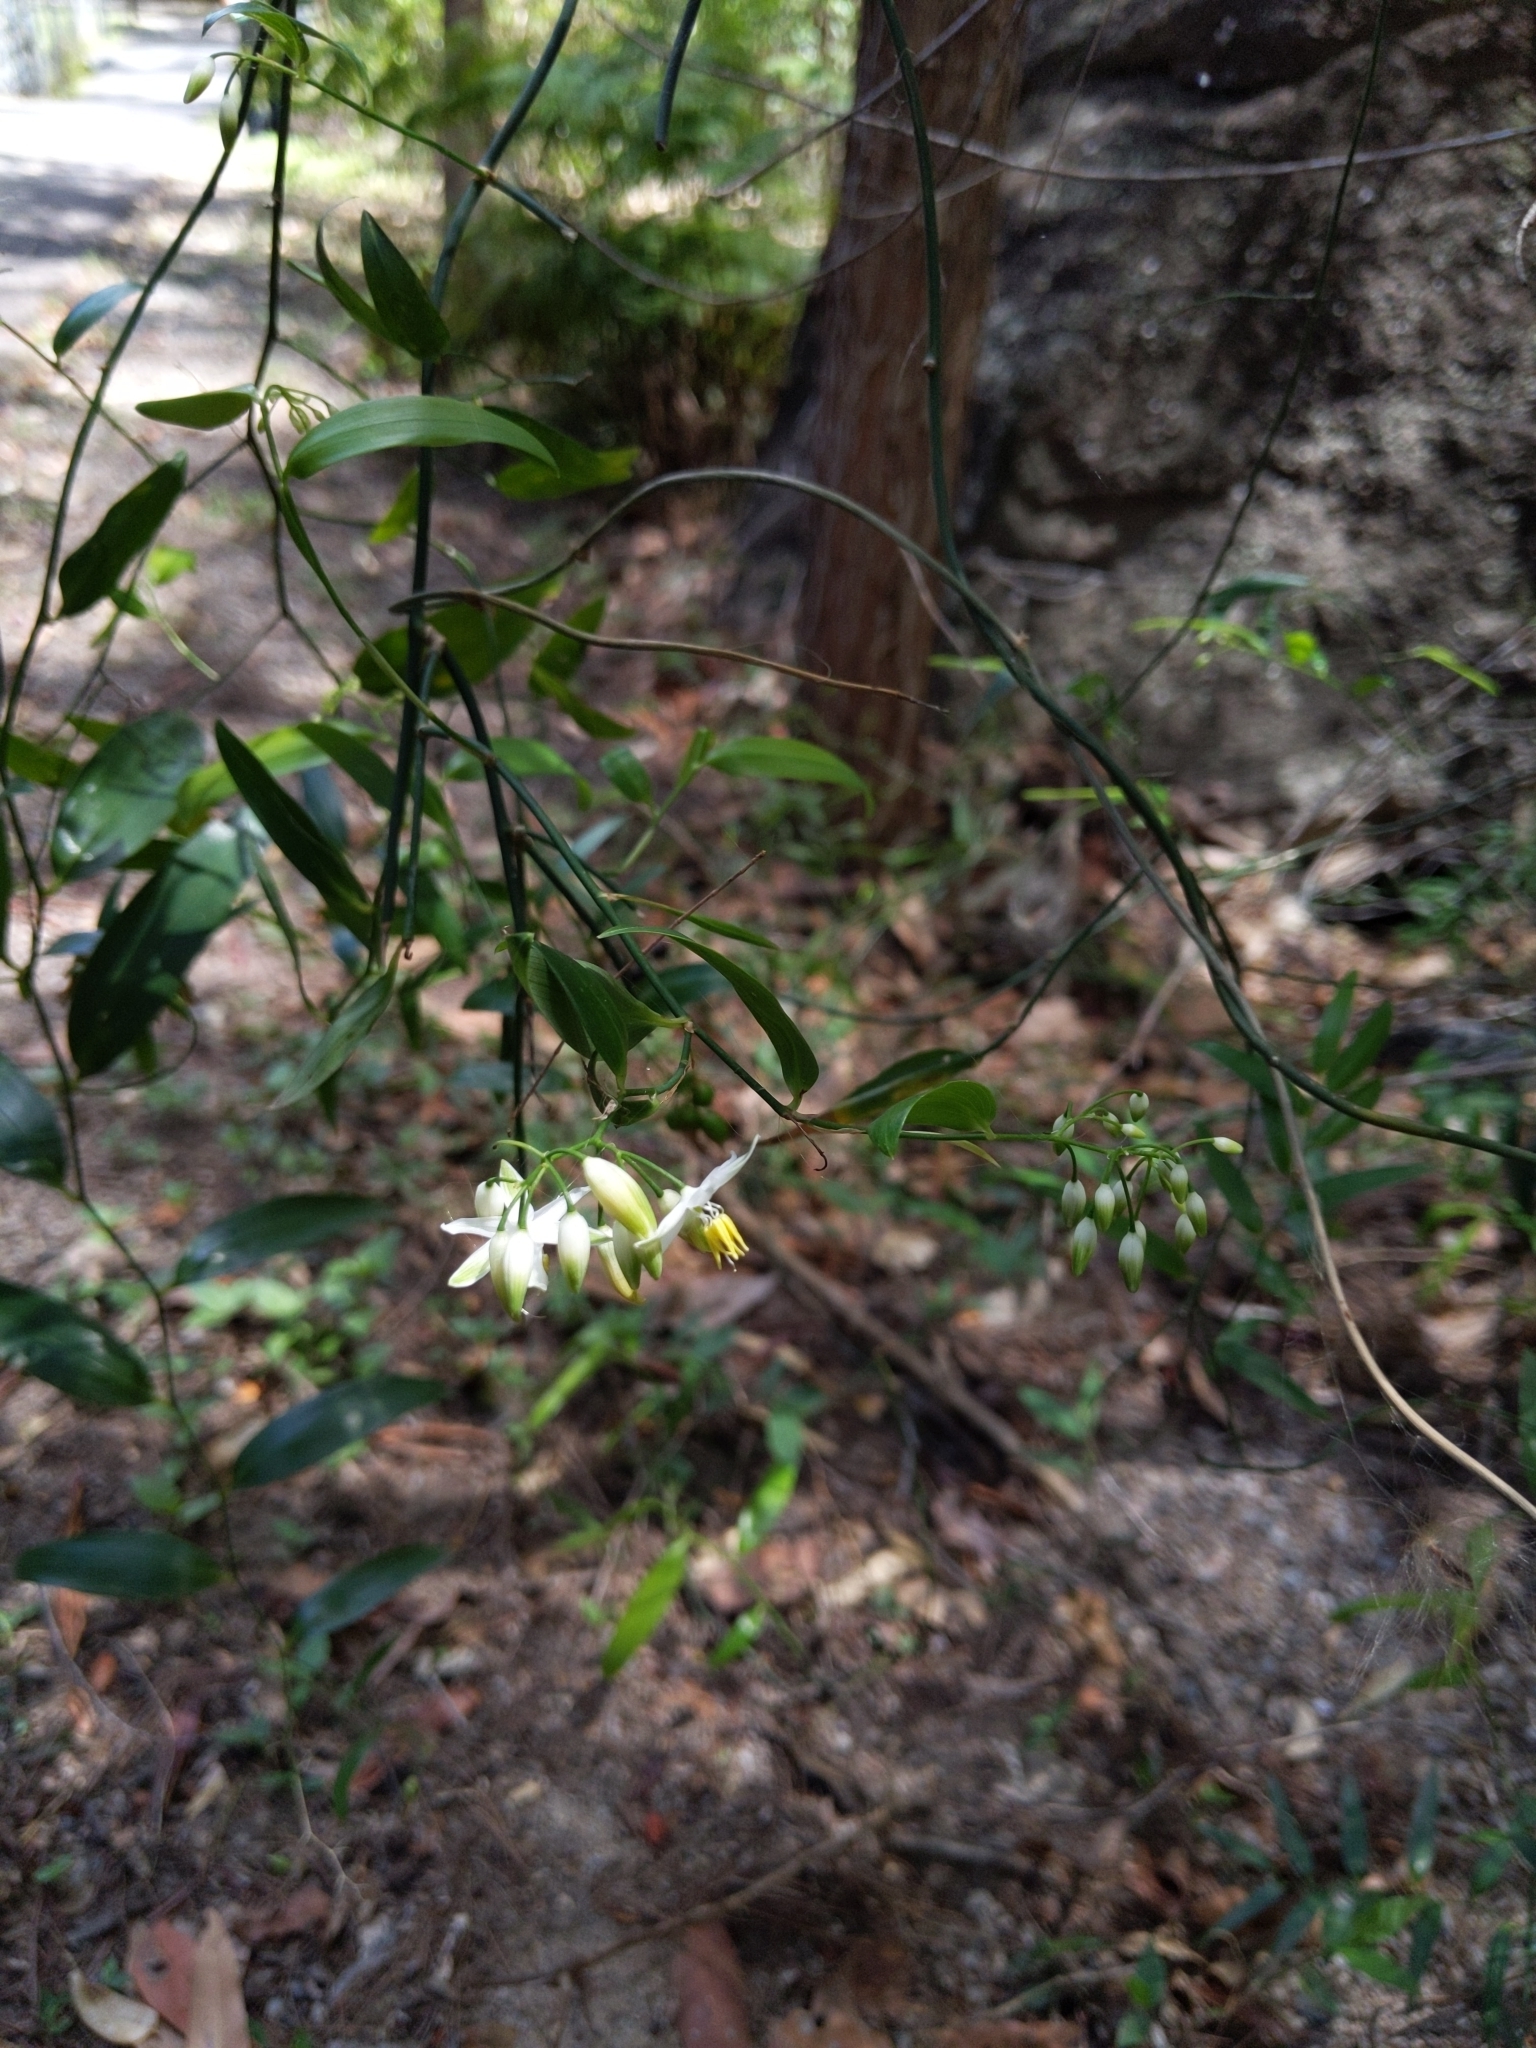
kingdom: Plantae
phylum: Tracheophyta
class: Liliopsida
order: Asparagales
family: Asphodelaceae
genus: Geitonoplesium
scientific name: Geitonoplesium cymosum
